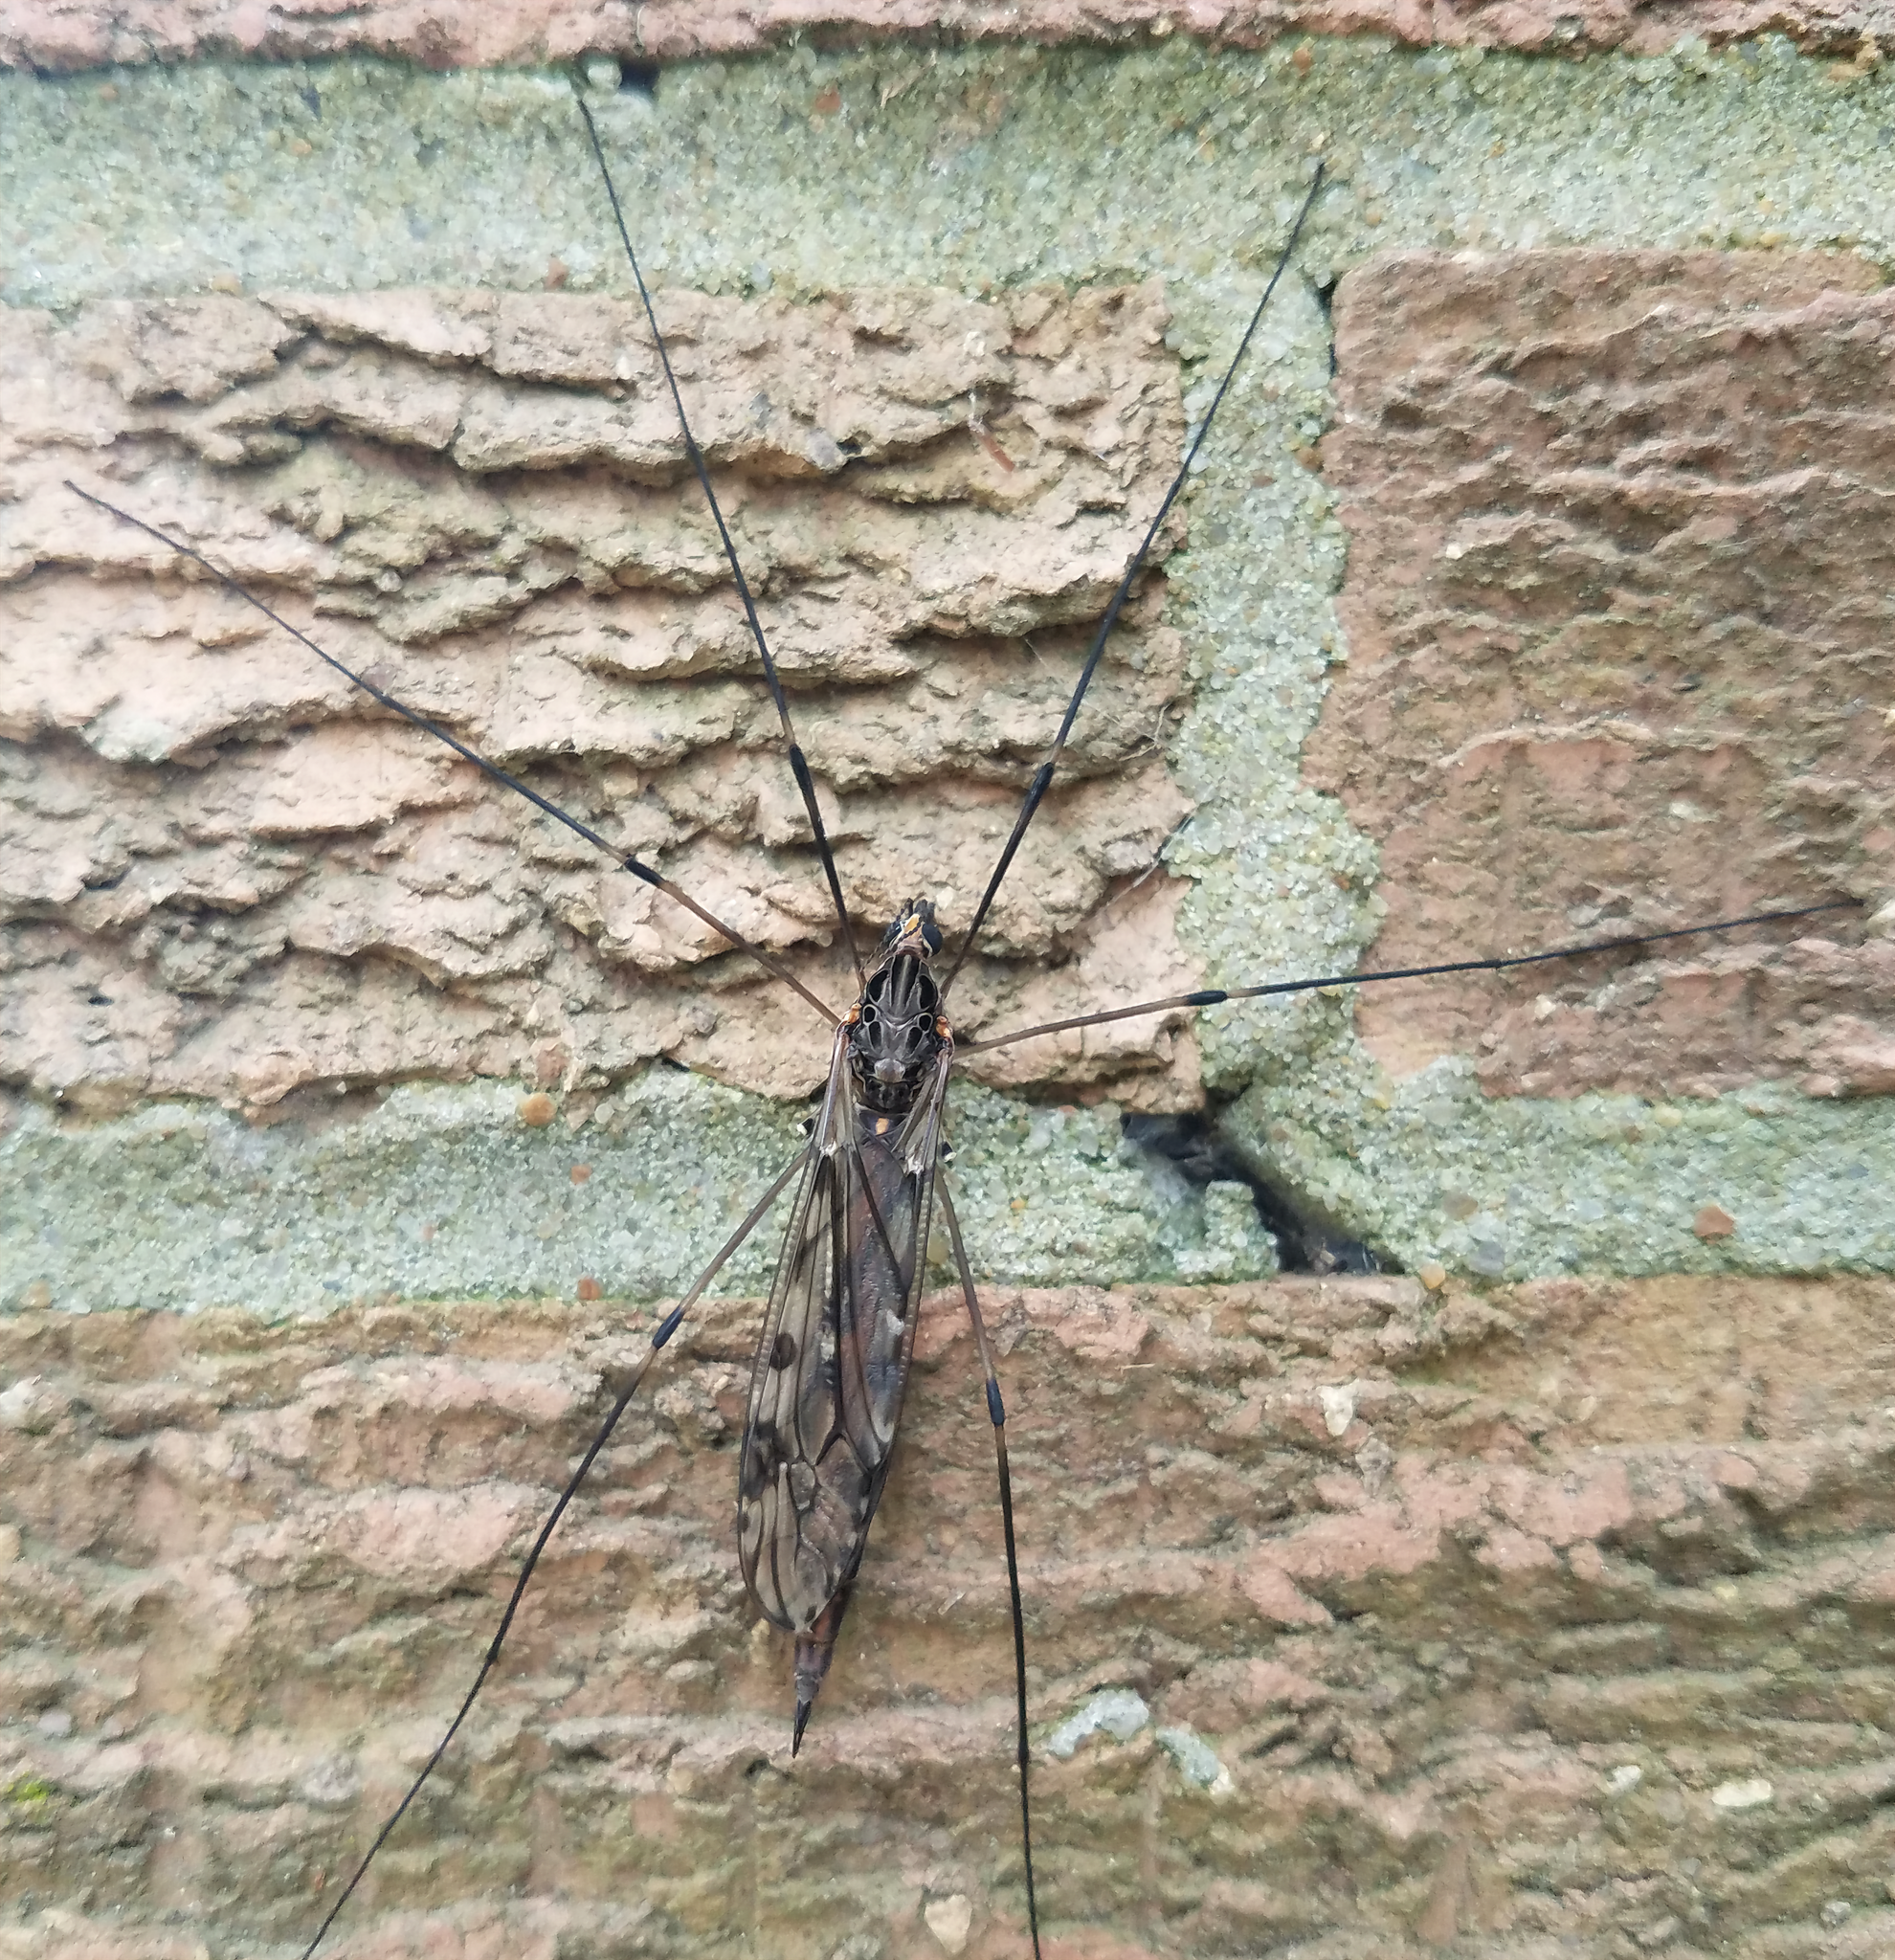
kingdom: Animalia
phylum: Arthropoda
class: Insecta
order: Diptera
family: Tipulidae
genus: Tipula
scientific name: Tipula abdominalis
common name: Giant crane fly
